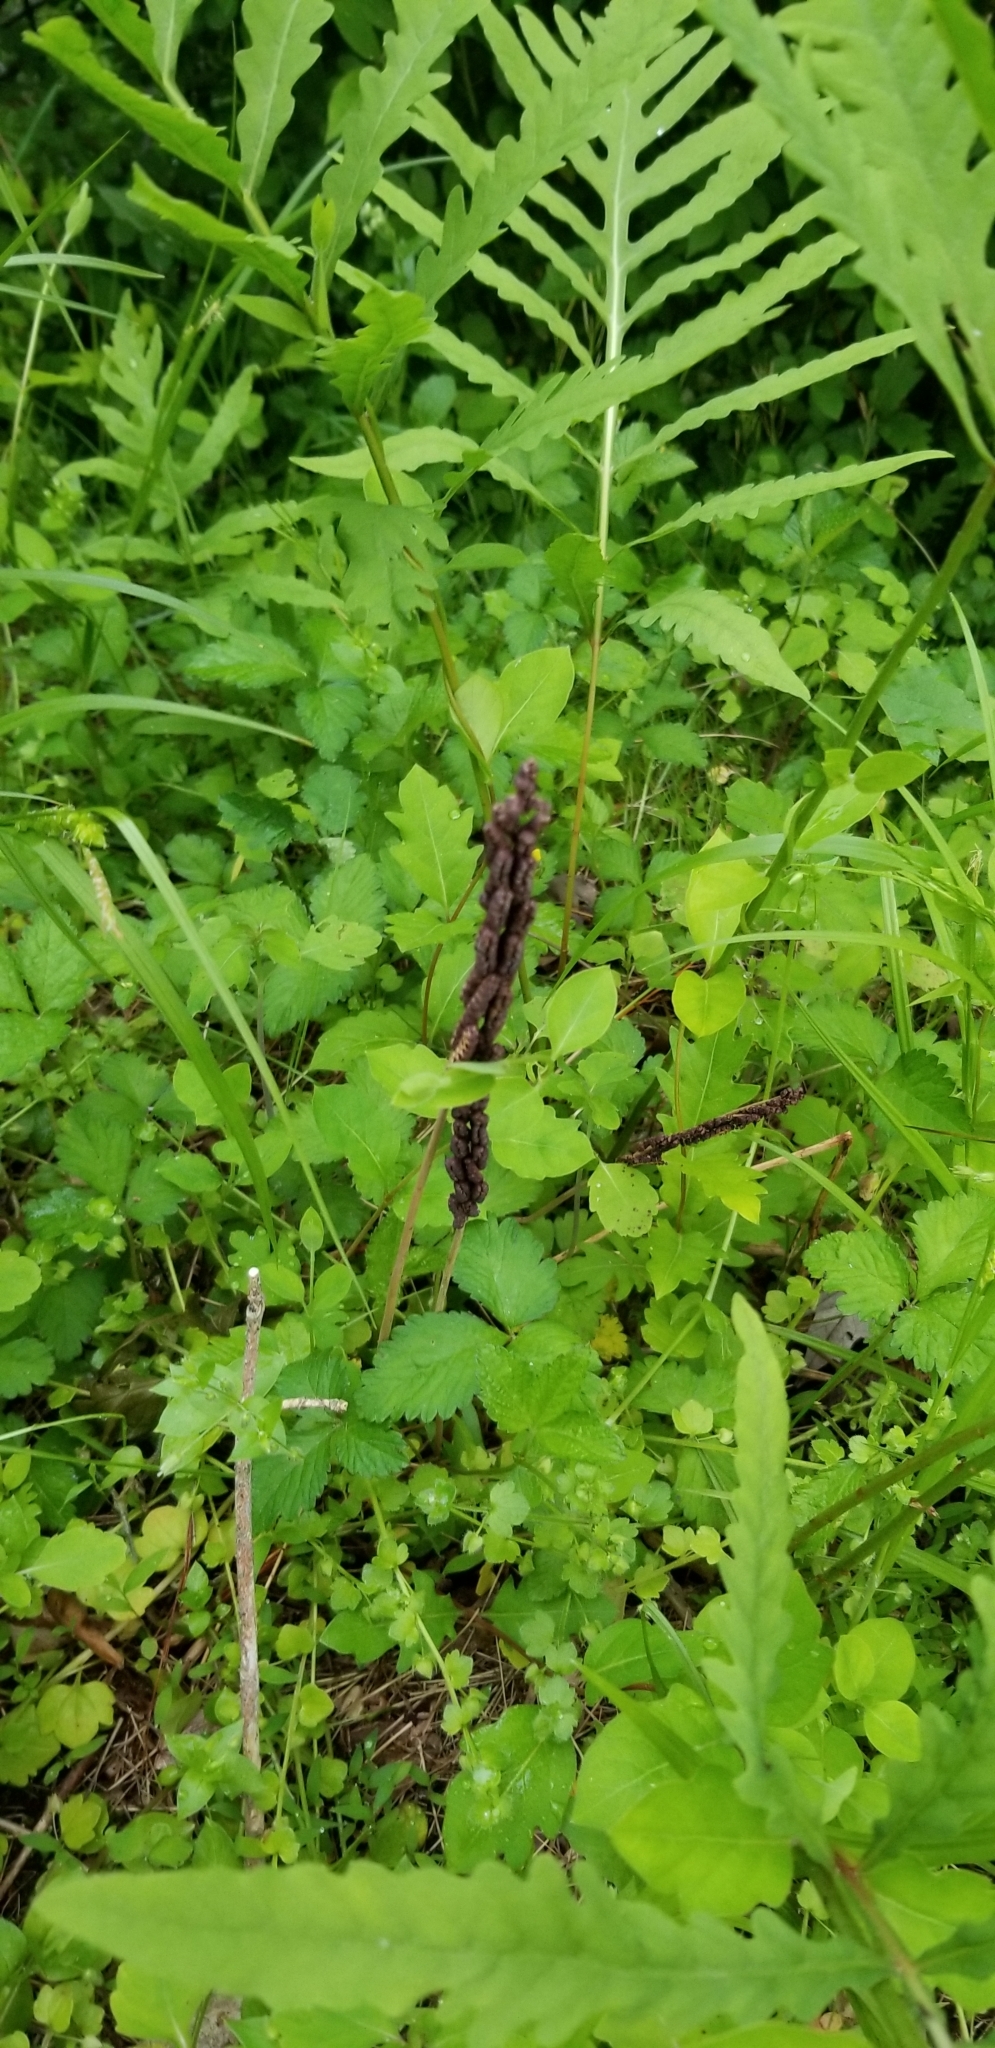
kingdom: Plantae
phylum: Tracheophyta
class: Polypodiopsida
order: Polypodiales
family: Onocleaceae
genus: Onoclea
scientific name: Onoclea sensibilis
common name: Sensitive fern
